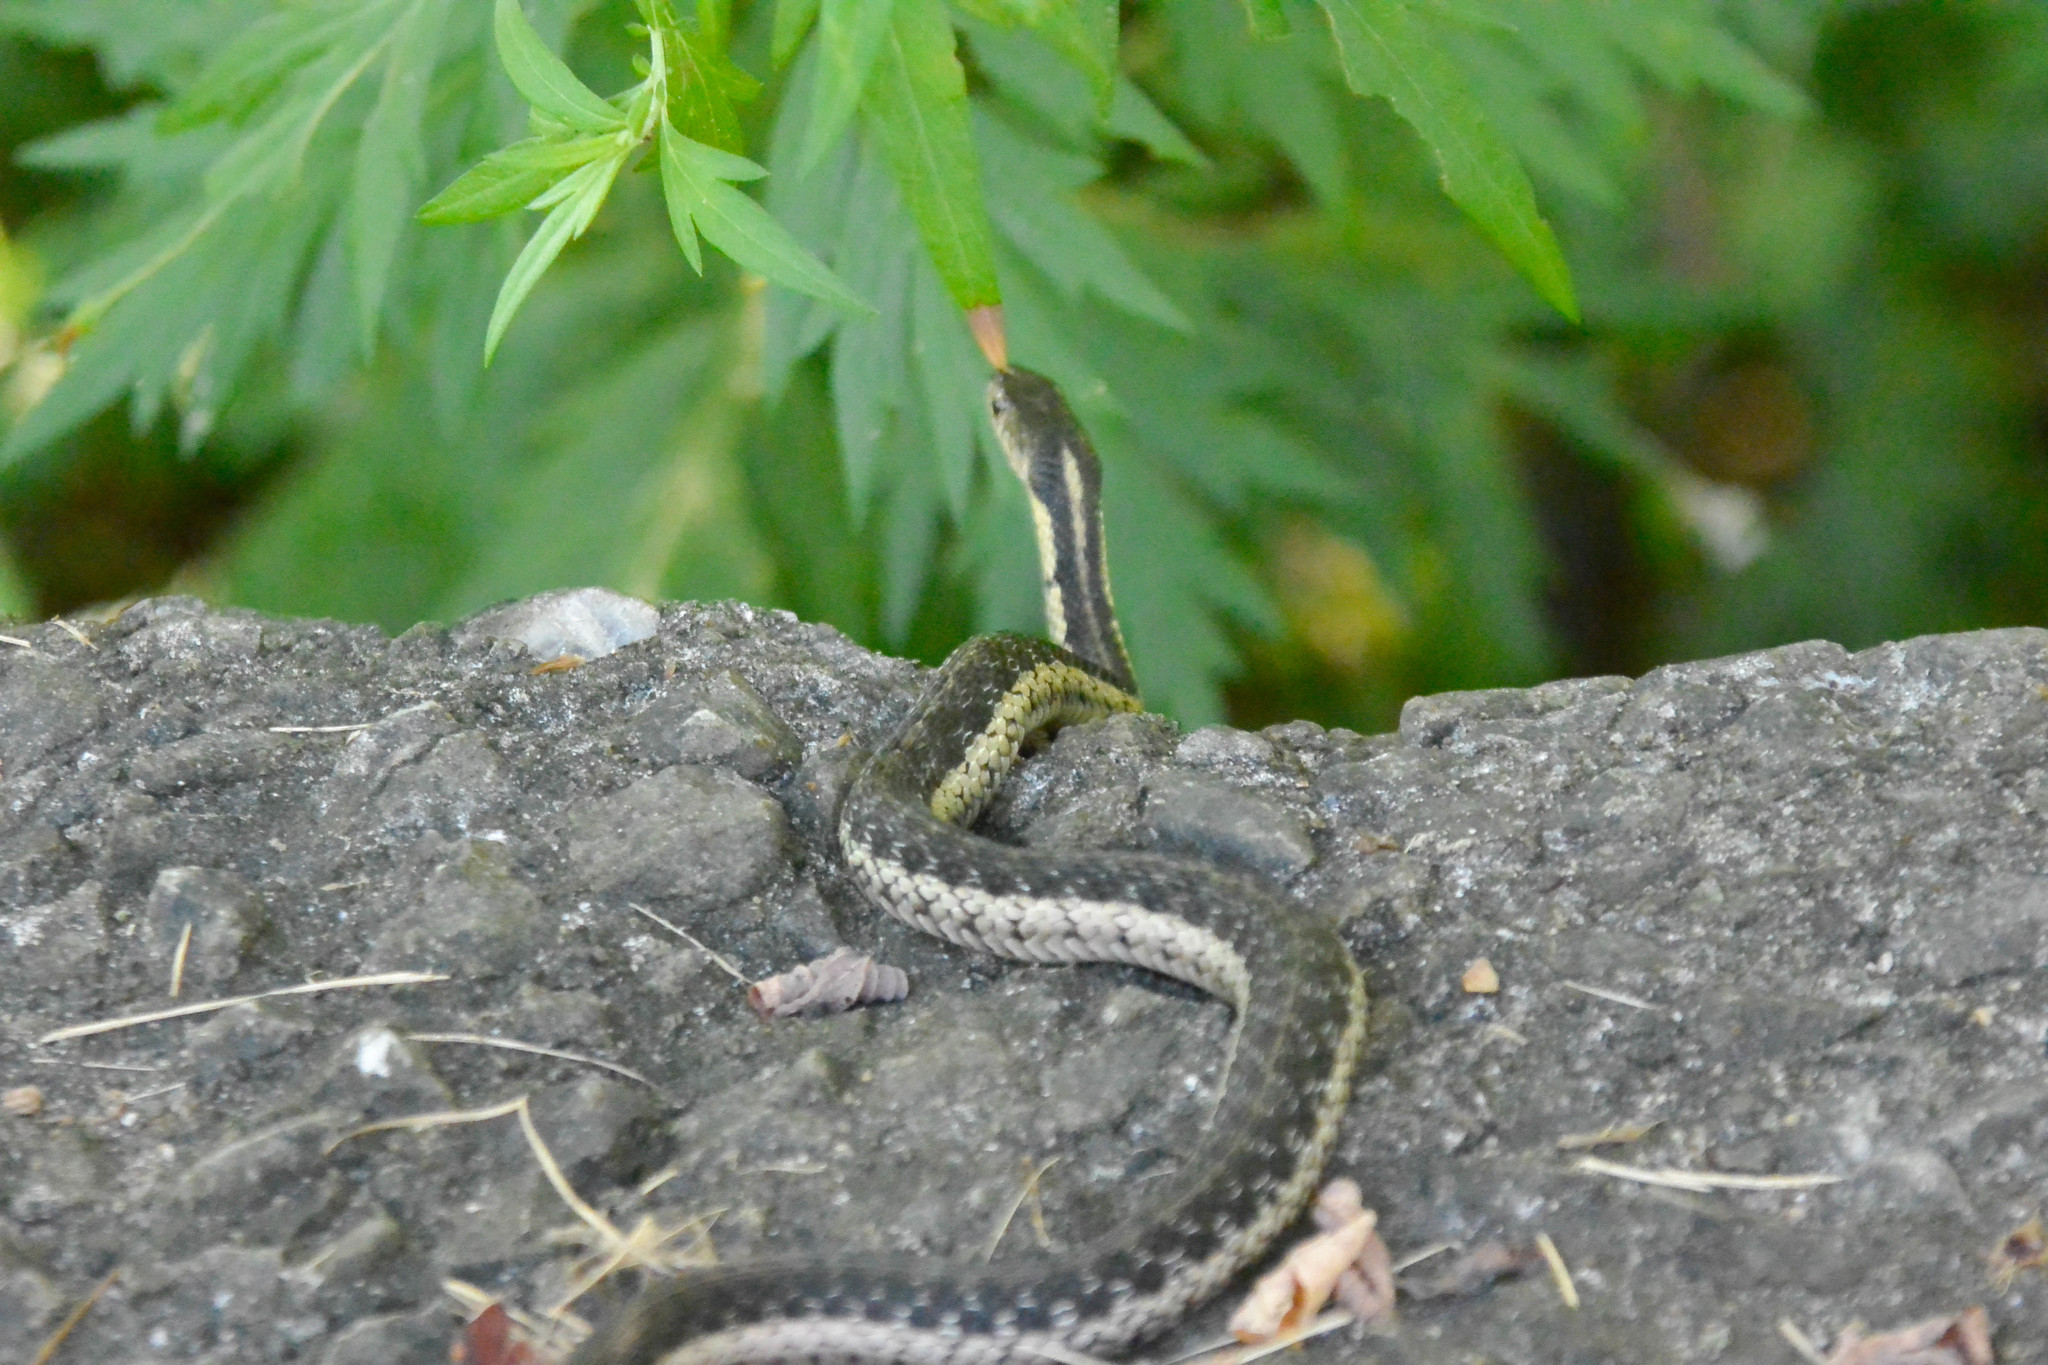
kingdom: Animalia
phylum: Chordata
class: Squamata
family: Colubridae
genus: Thamnophis
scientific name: Thamnophis sirtalis
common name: Common garter snake
